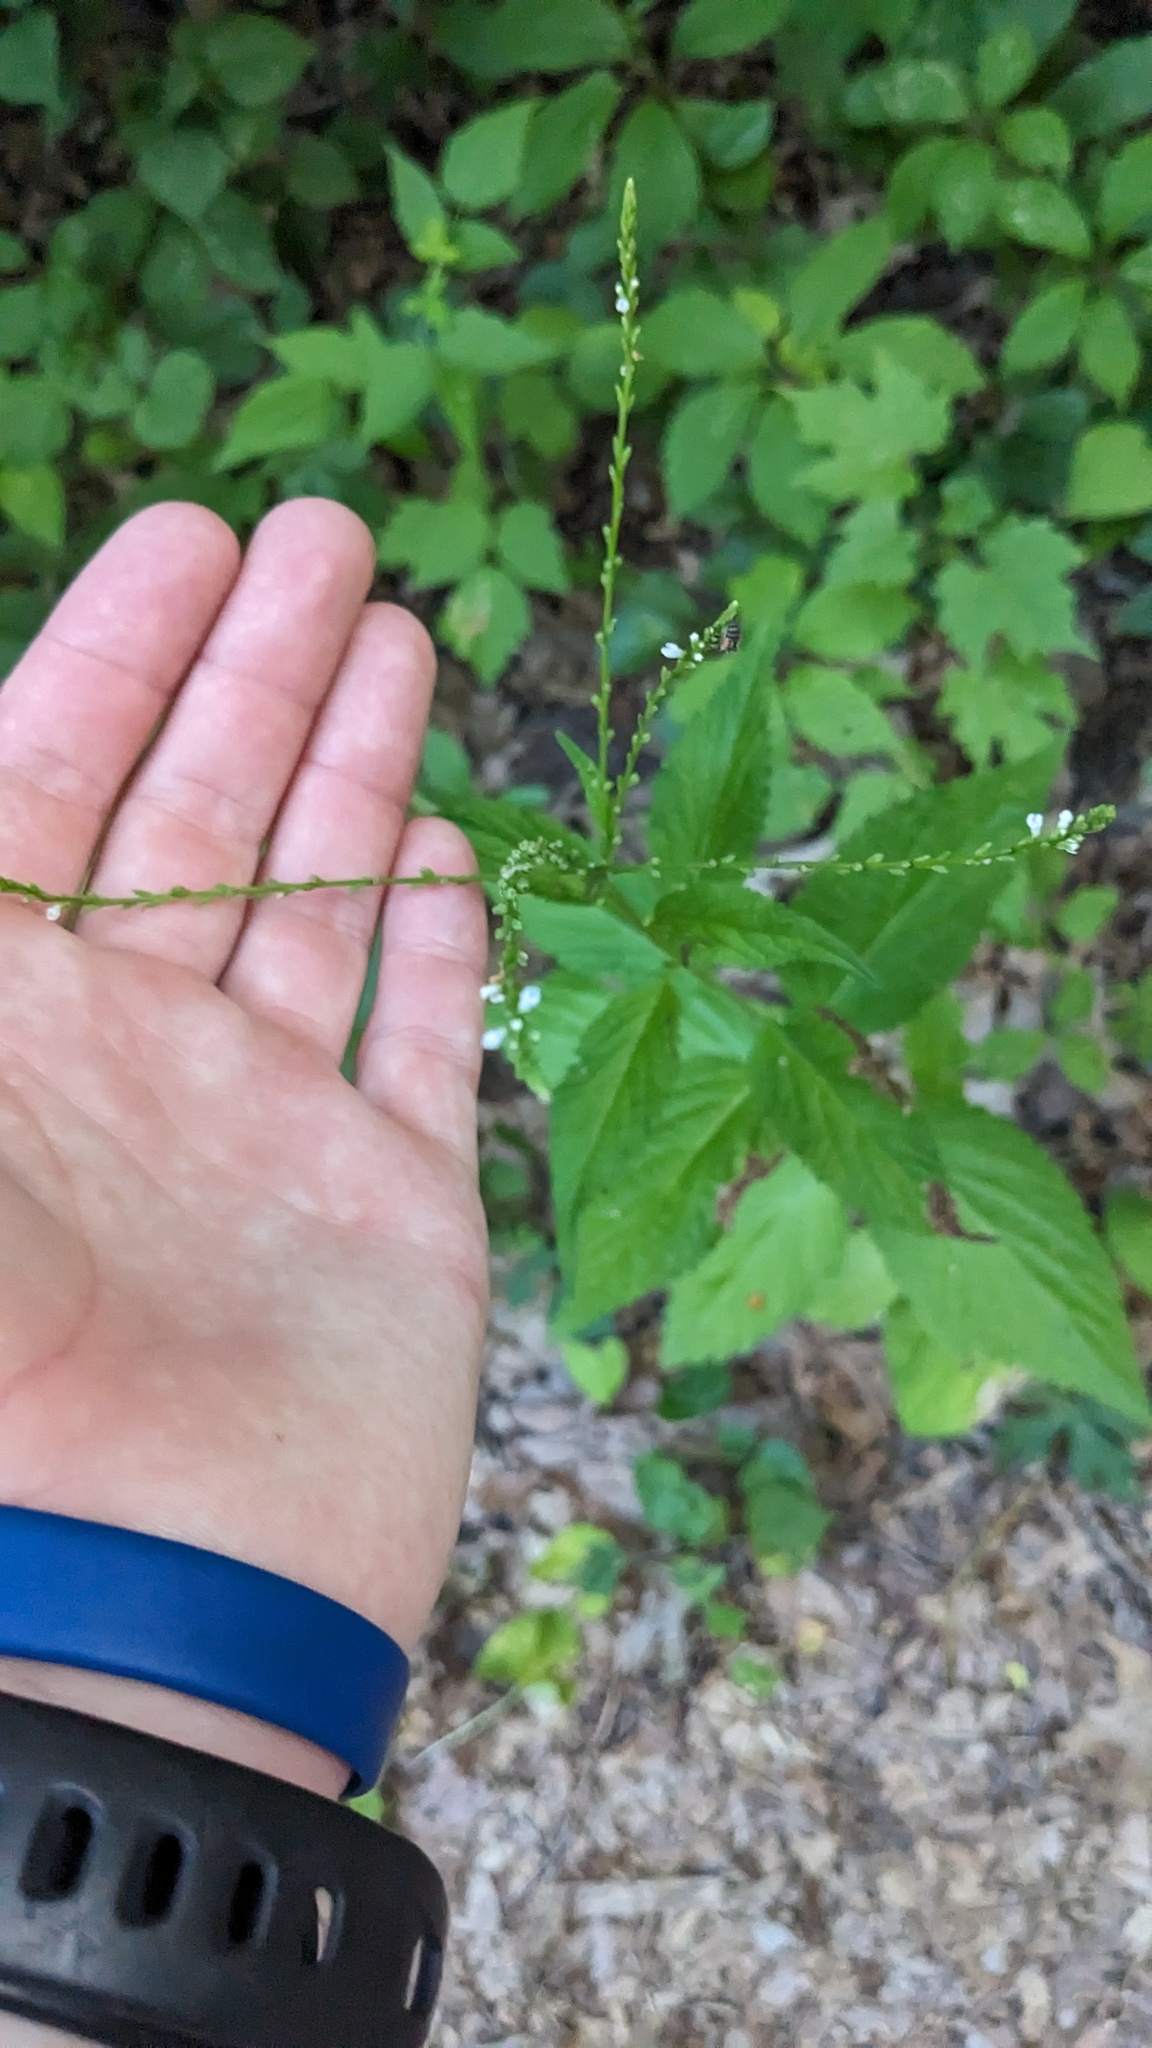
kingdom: Plantae
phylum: Tracheophyta
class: Magnoliopsida
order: Lamiales
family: Verbenaceae
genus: Verbena
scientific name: Verbena urticifolia
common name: Nettle-leaved vervain
